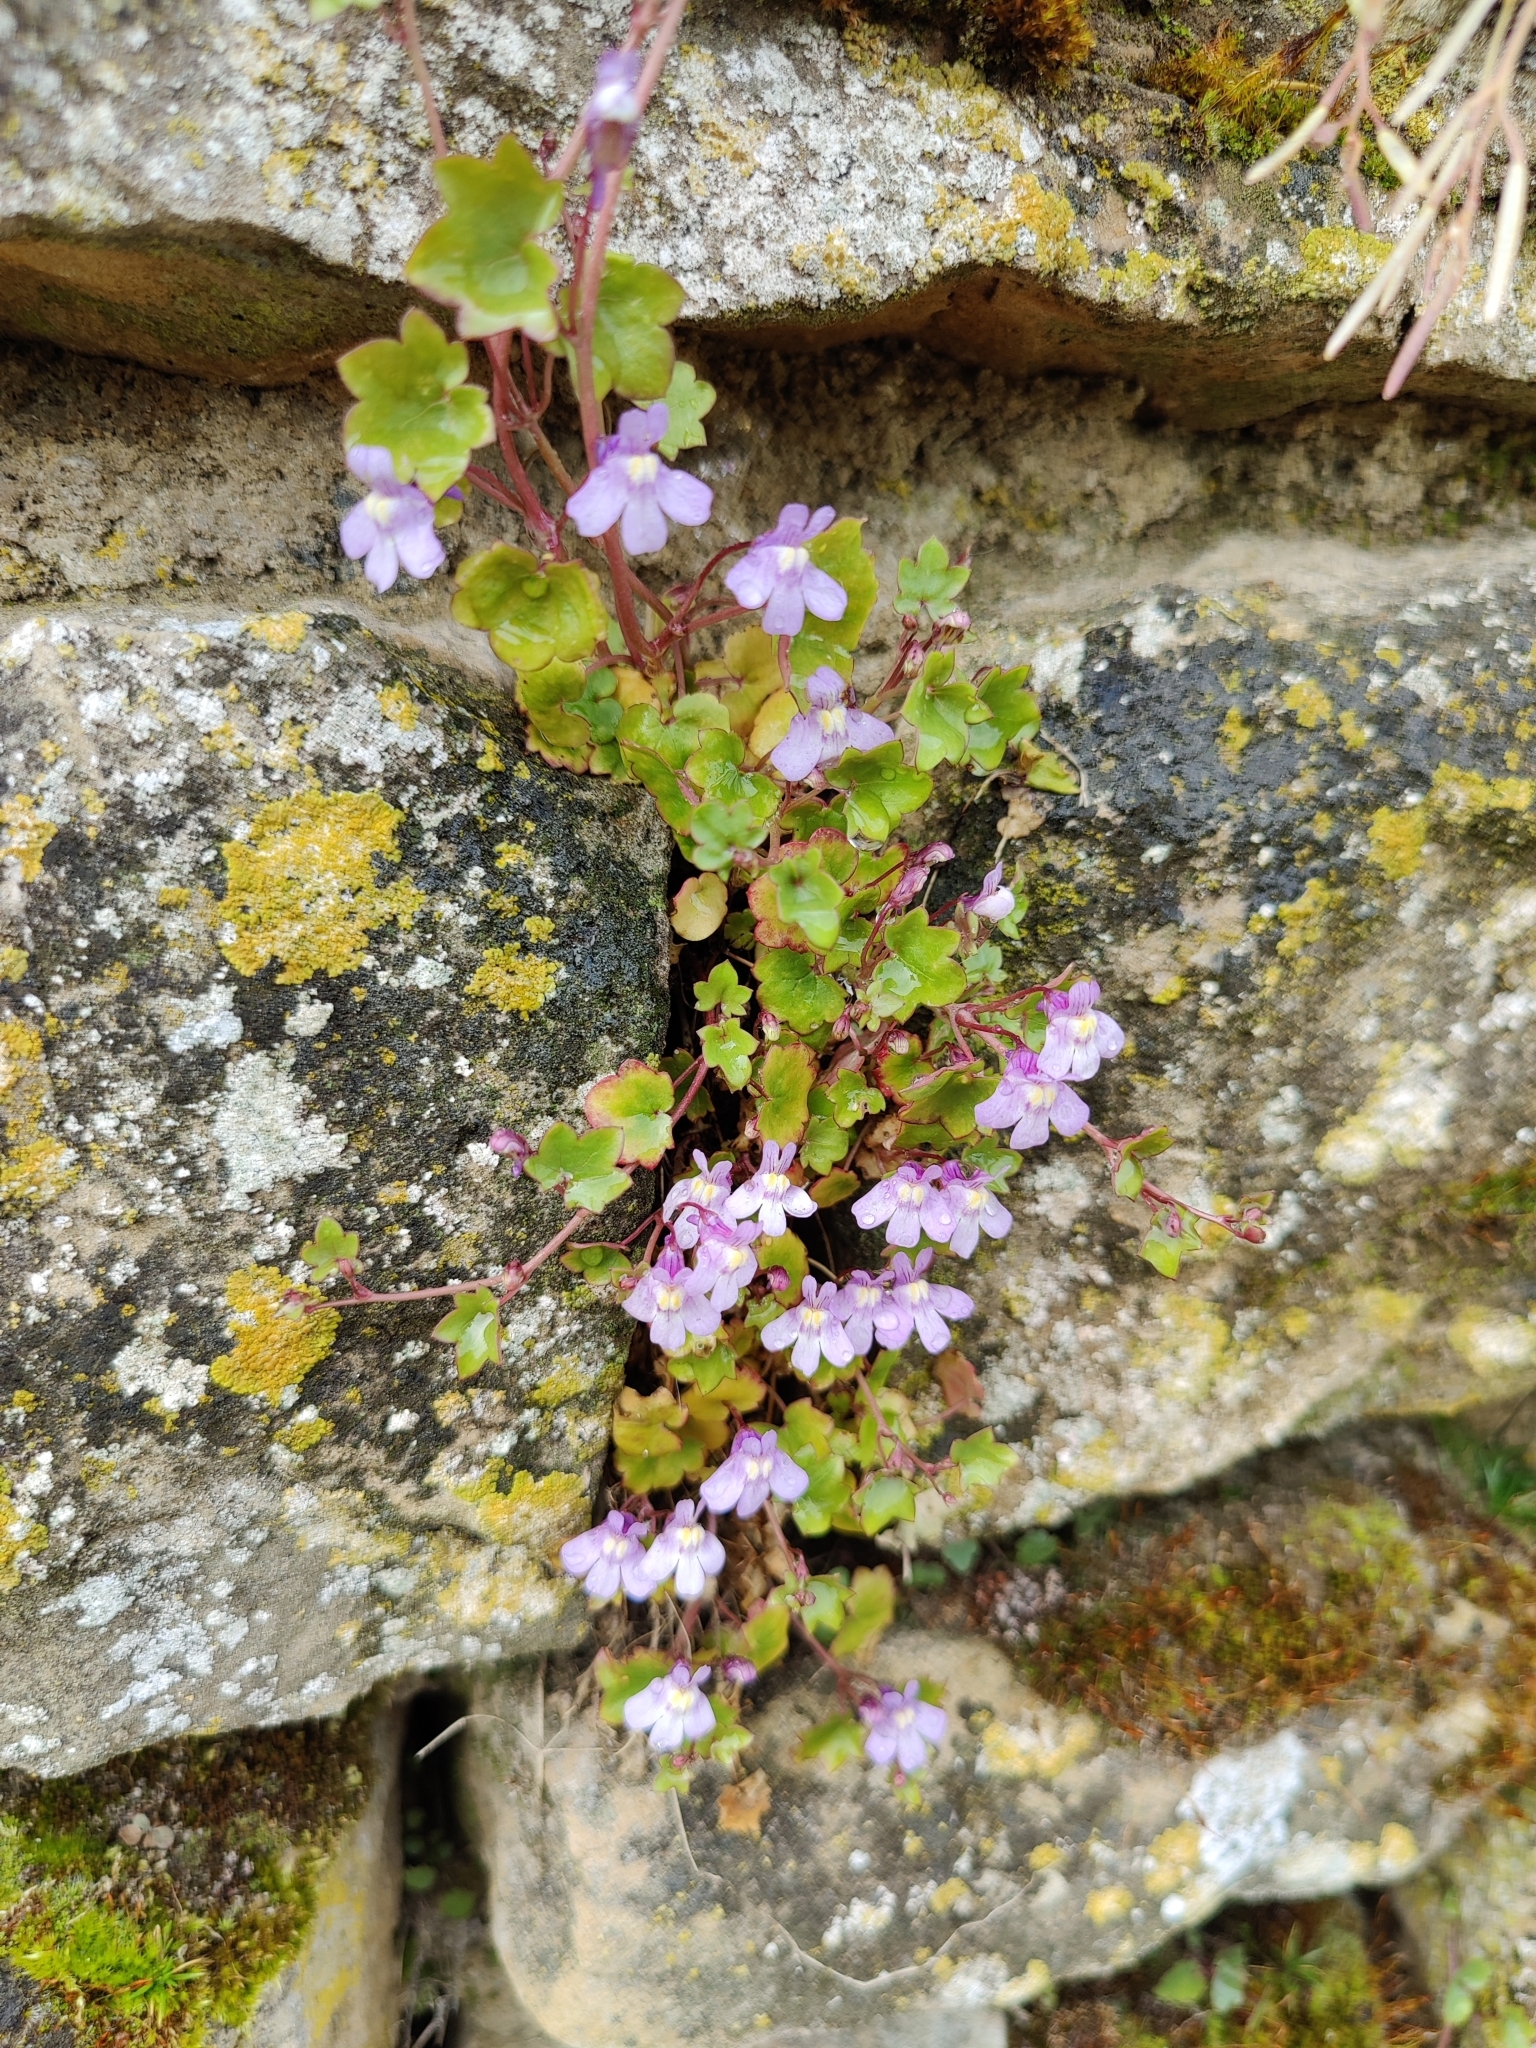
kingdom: Plantae
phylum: Tracheophyta
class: Magnoliopsida
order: Lamiales
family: Plantaginaceae
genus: Cymbalaria
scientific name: Cymbalaria muralis
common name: Ivy-leaved toadflax
